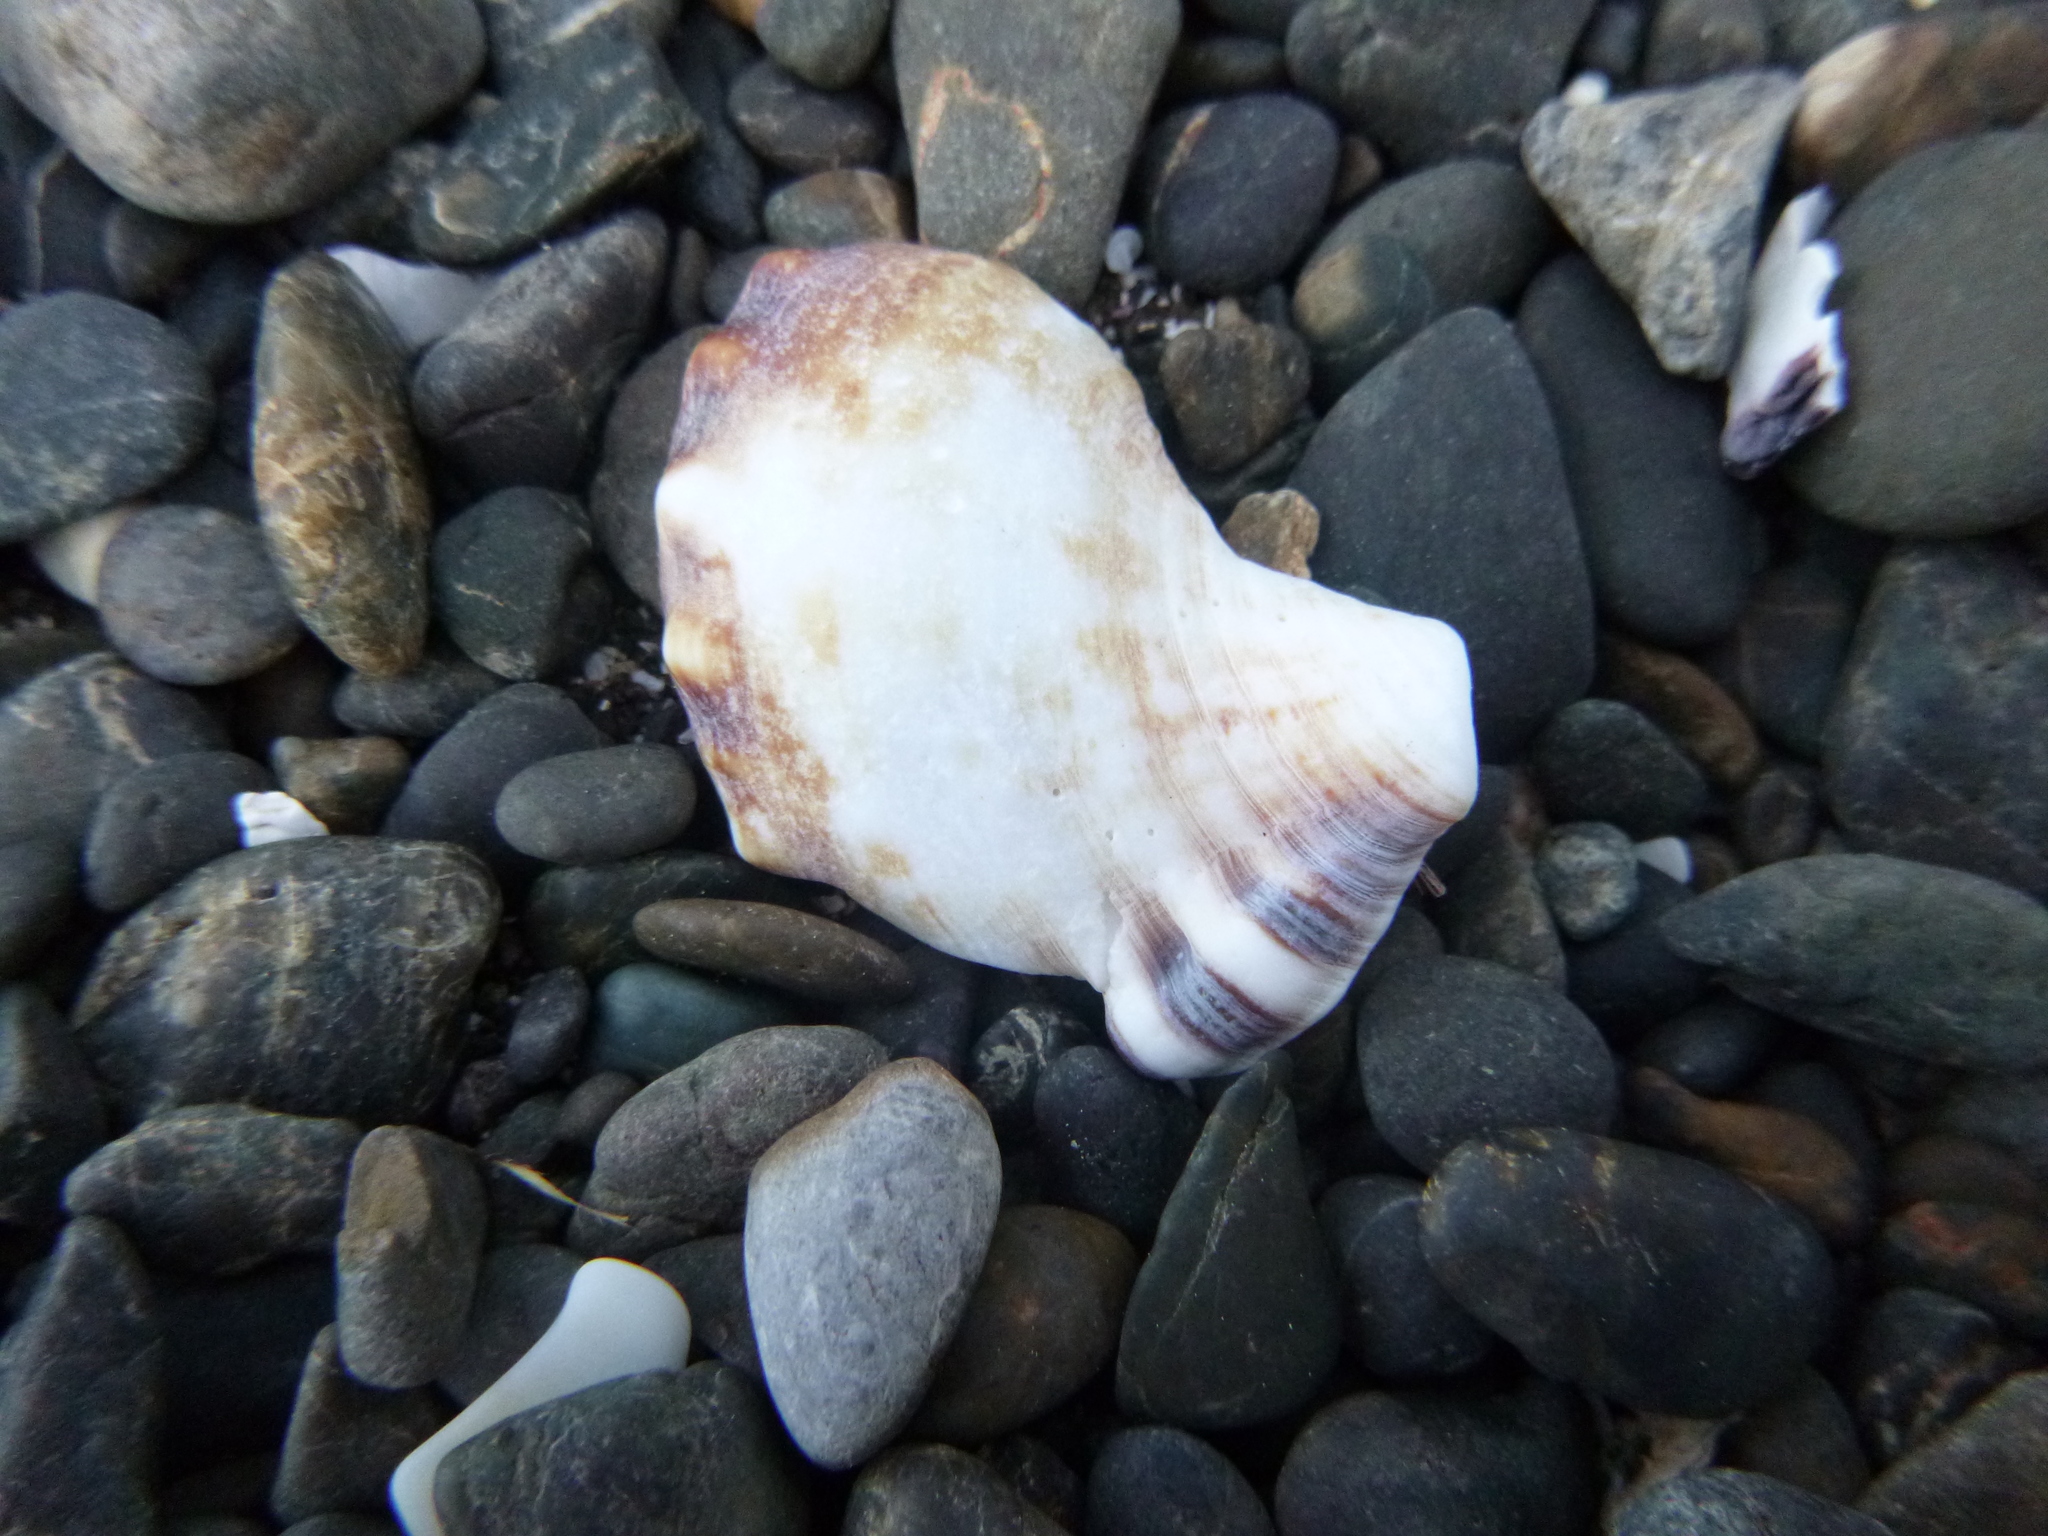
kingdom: Animalia
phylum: Mollusca
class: Gastropoda
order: Littorinimorpha
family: Ranellidae
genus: Ranella
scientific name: Ranella australasia
